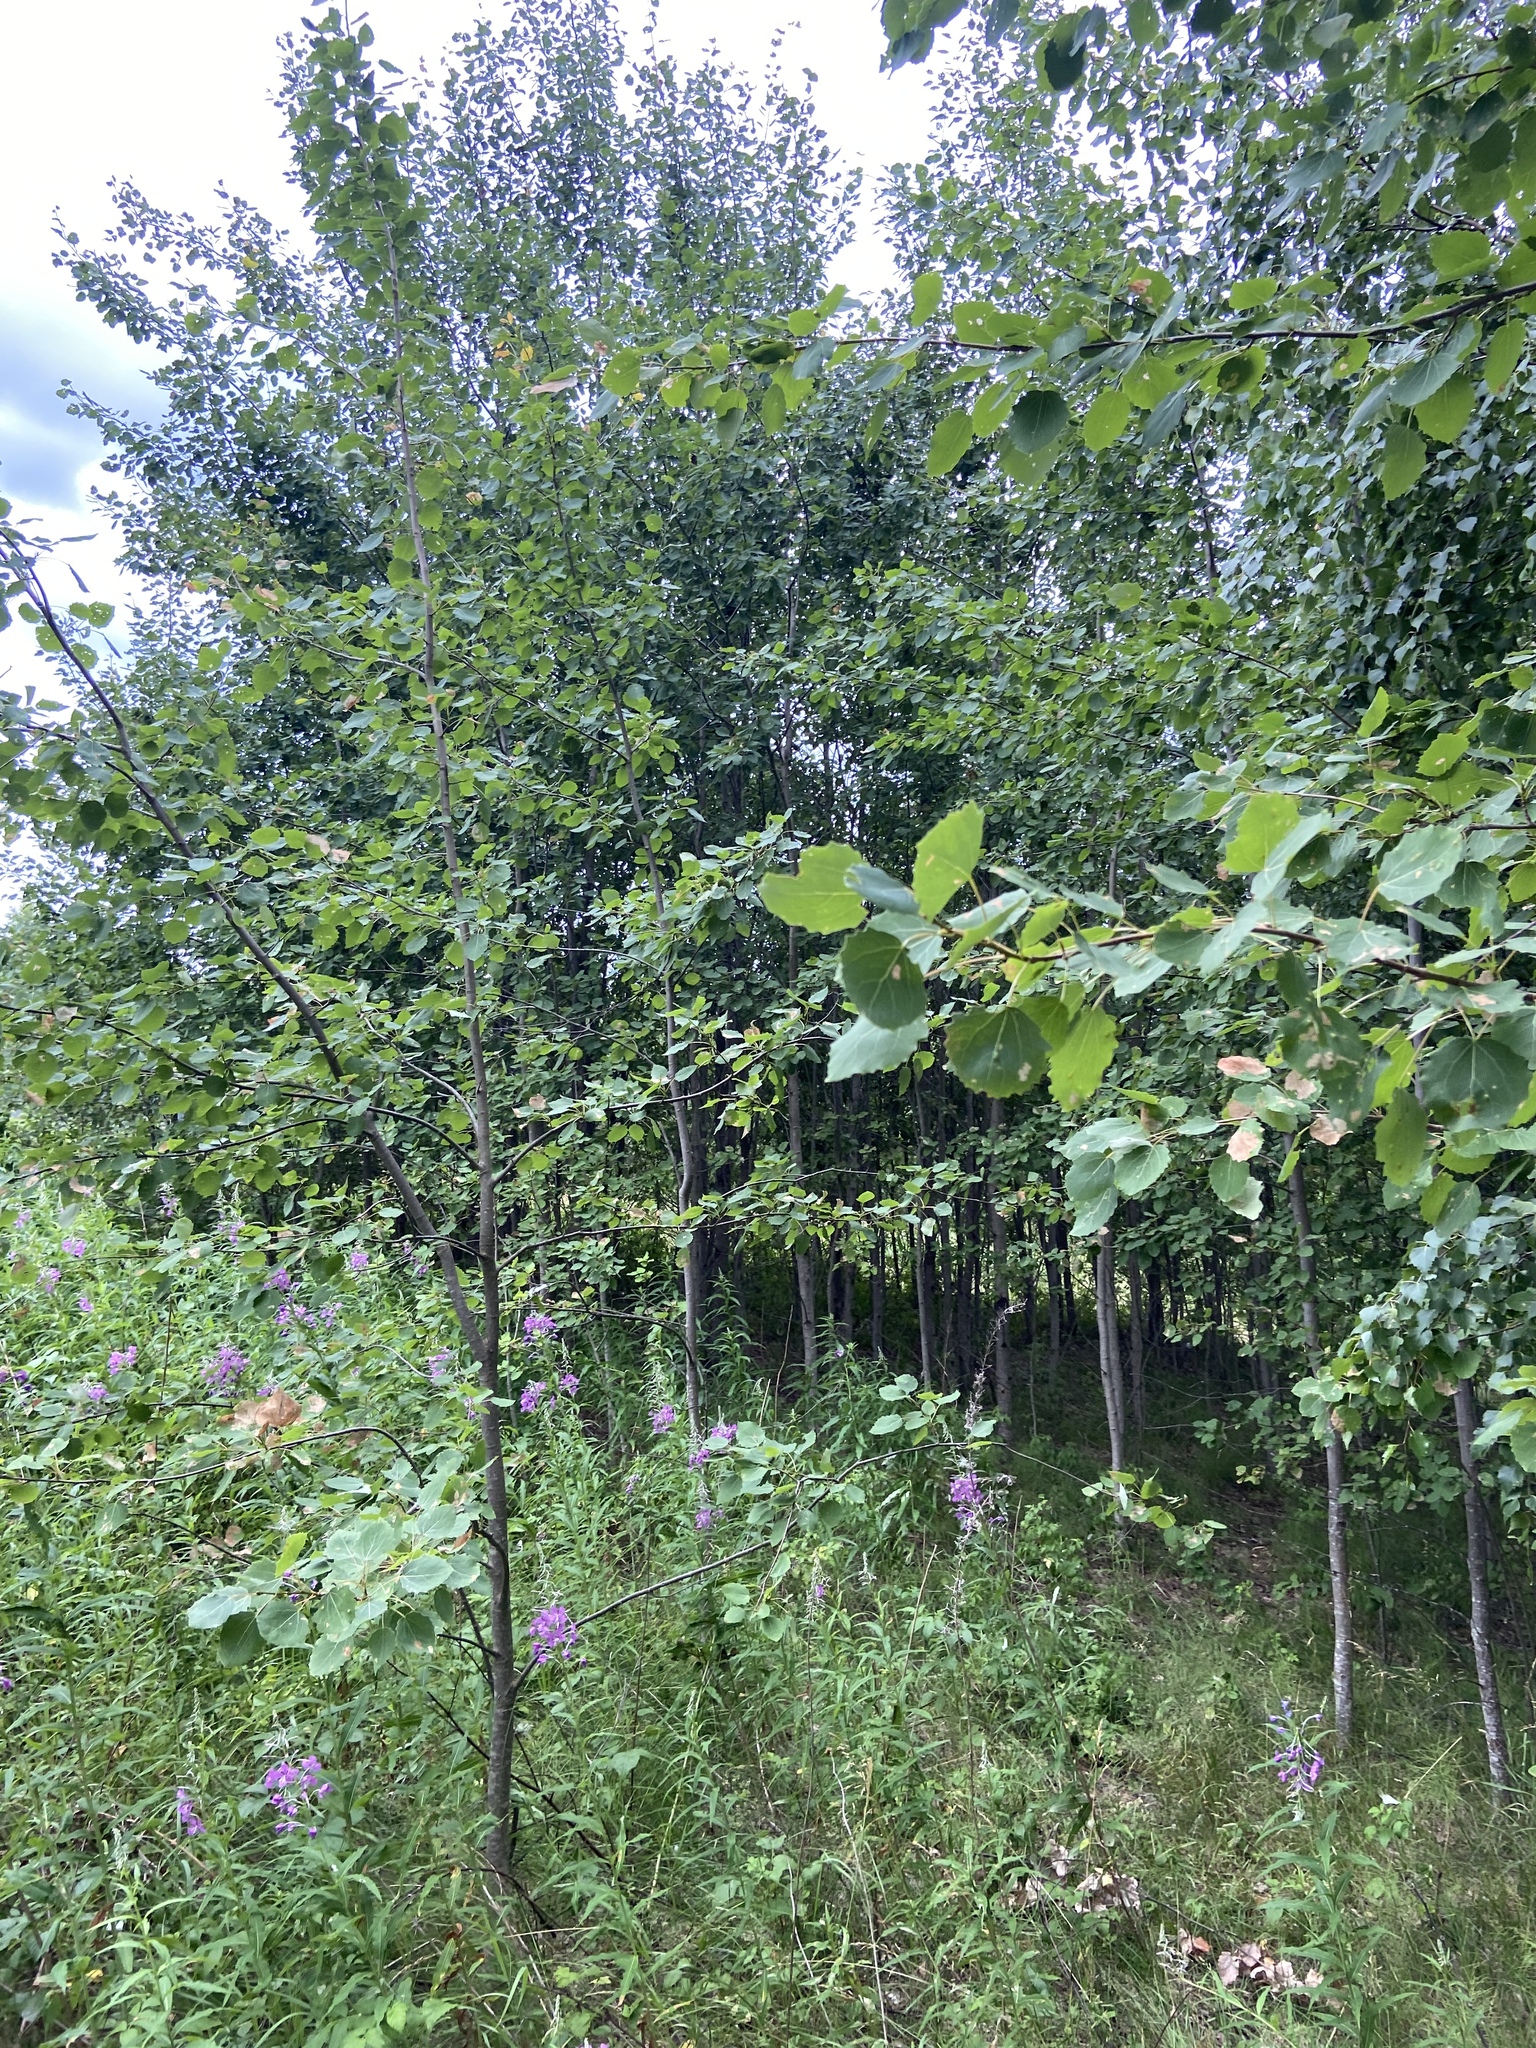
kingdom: Plantae
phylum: Tracheophyta
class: Magnoliopsida
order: Malpighiales
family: Salicaceae
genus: Populus
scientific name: Populus tremula
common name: European aspen
